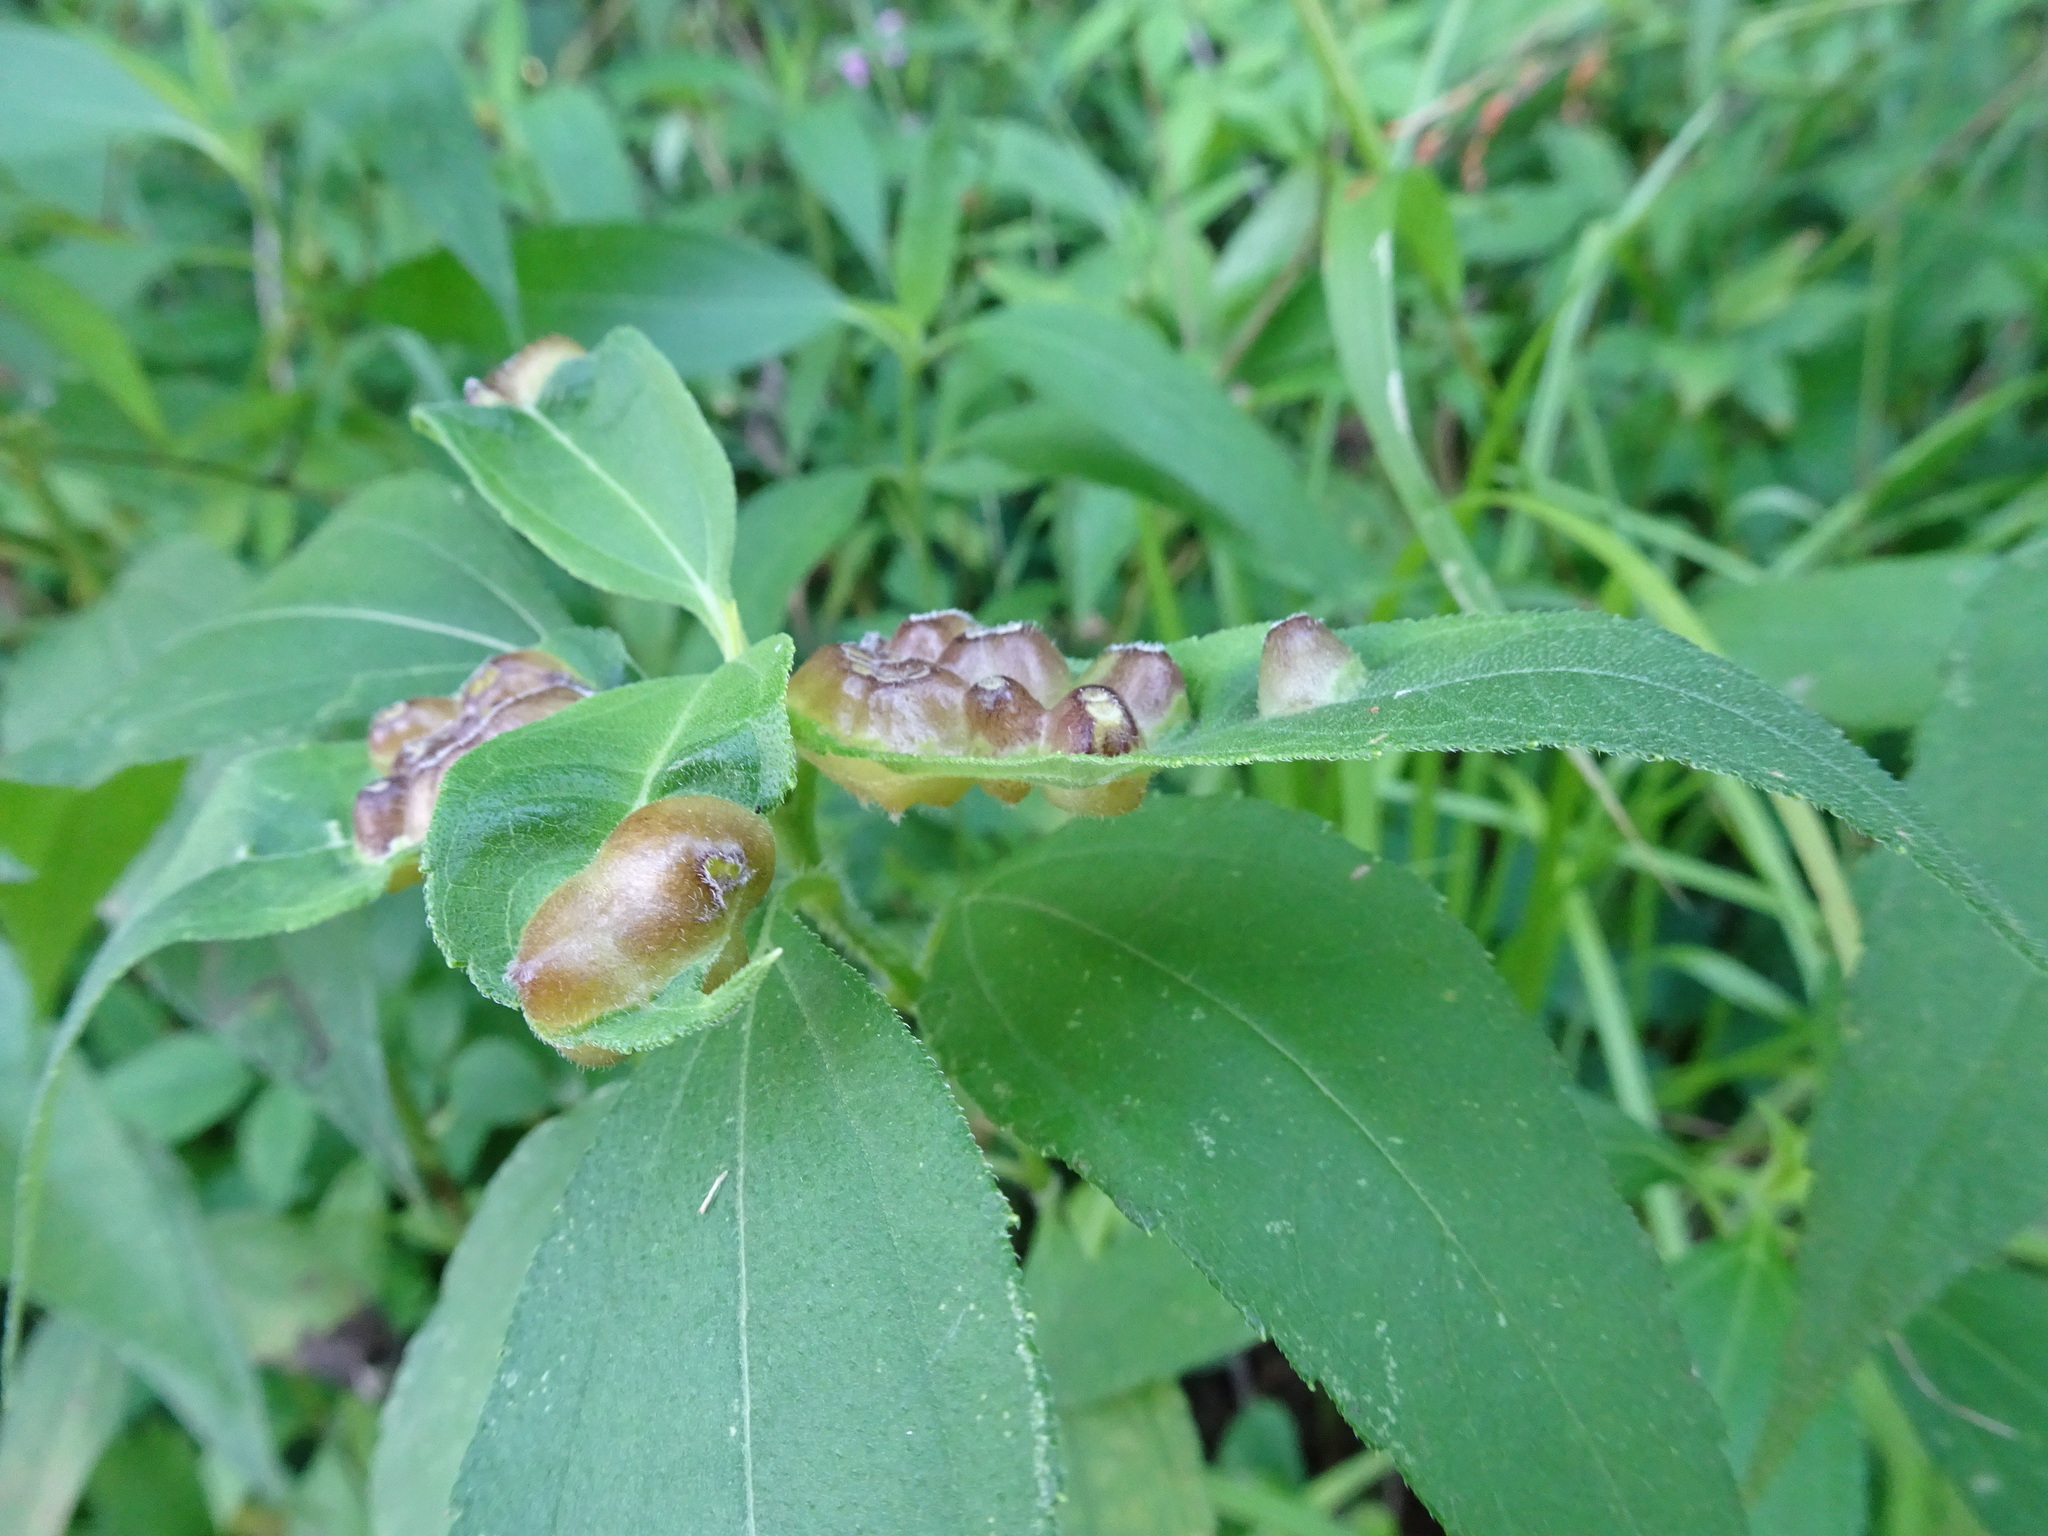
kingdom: Animalia
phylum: Arthropoda
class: Insecta
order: Diptera
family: Cecidomyiidae
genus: Pilodiplosis
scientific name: Pilodiplosis helianthibulla
